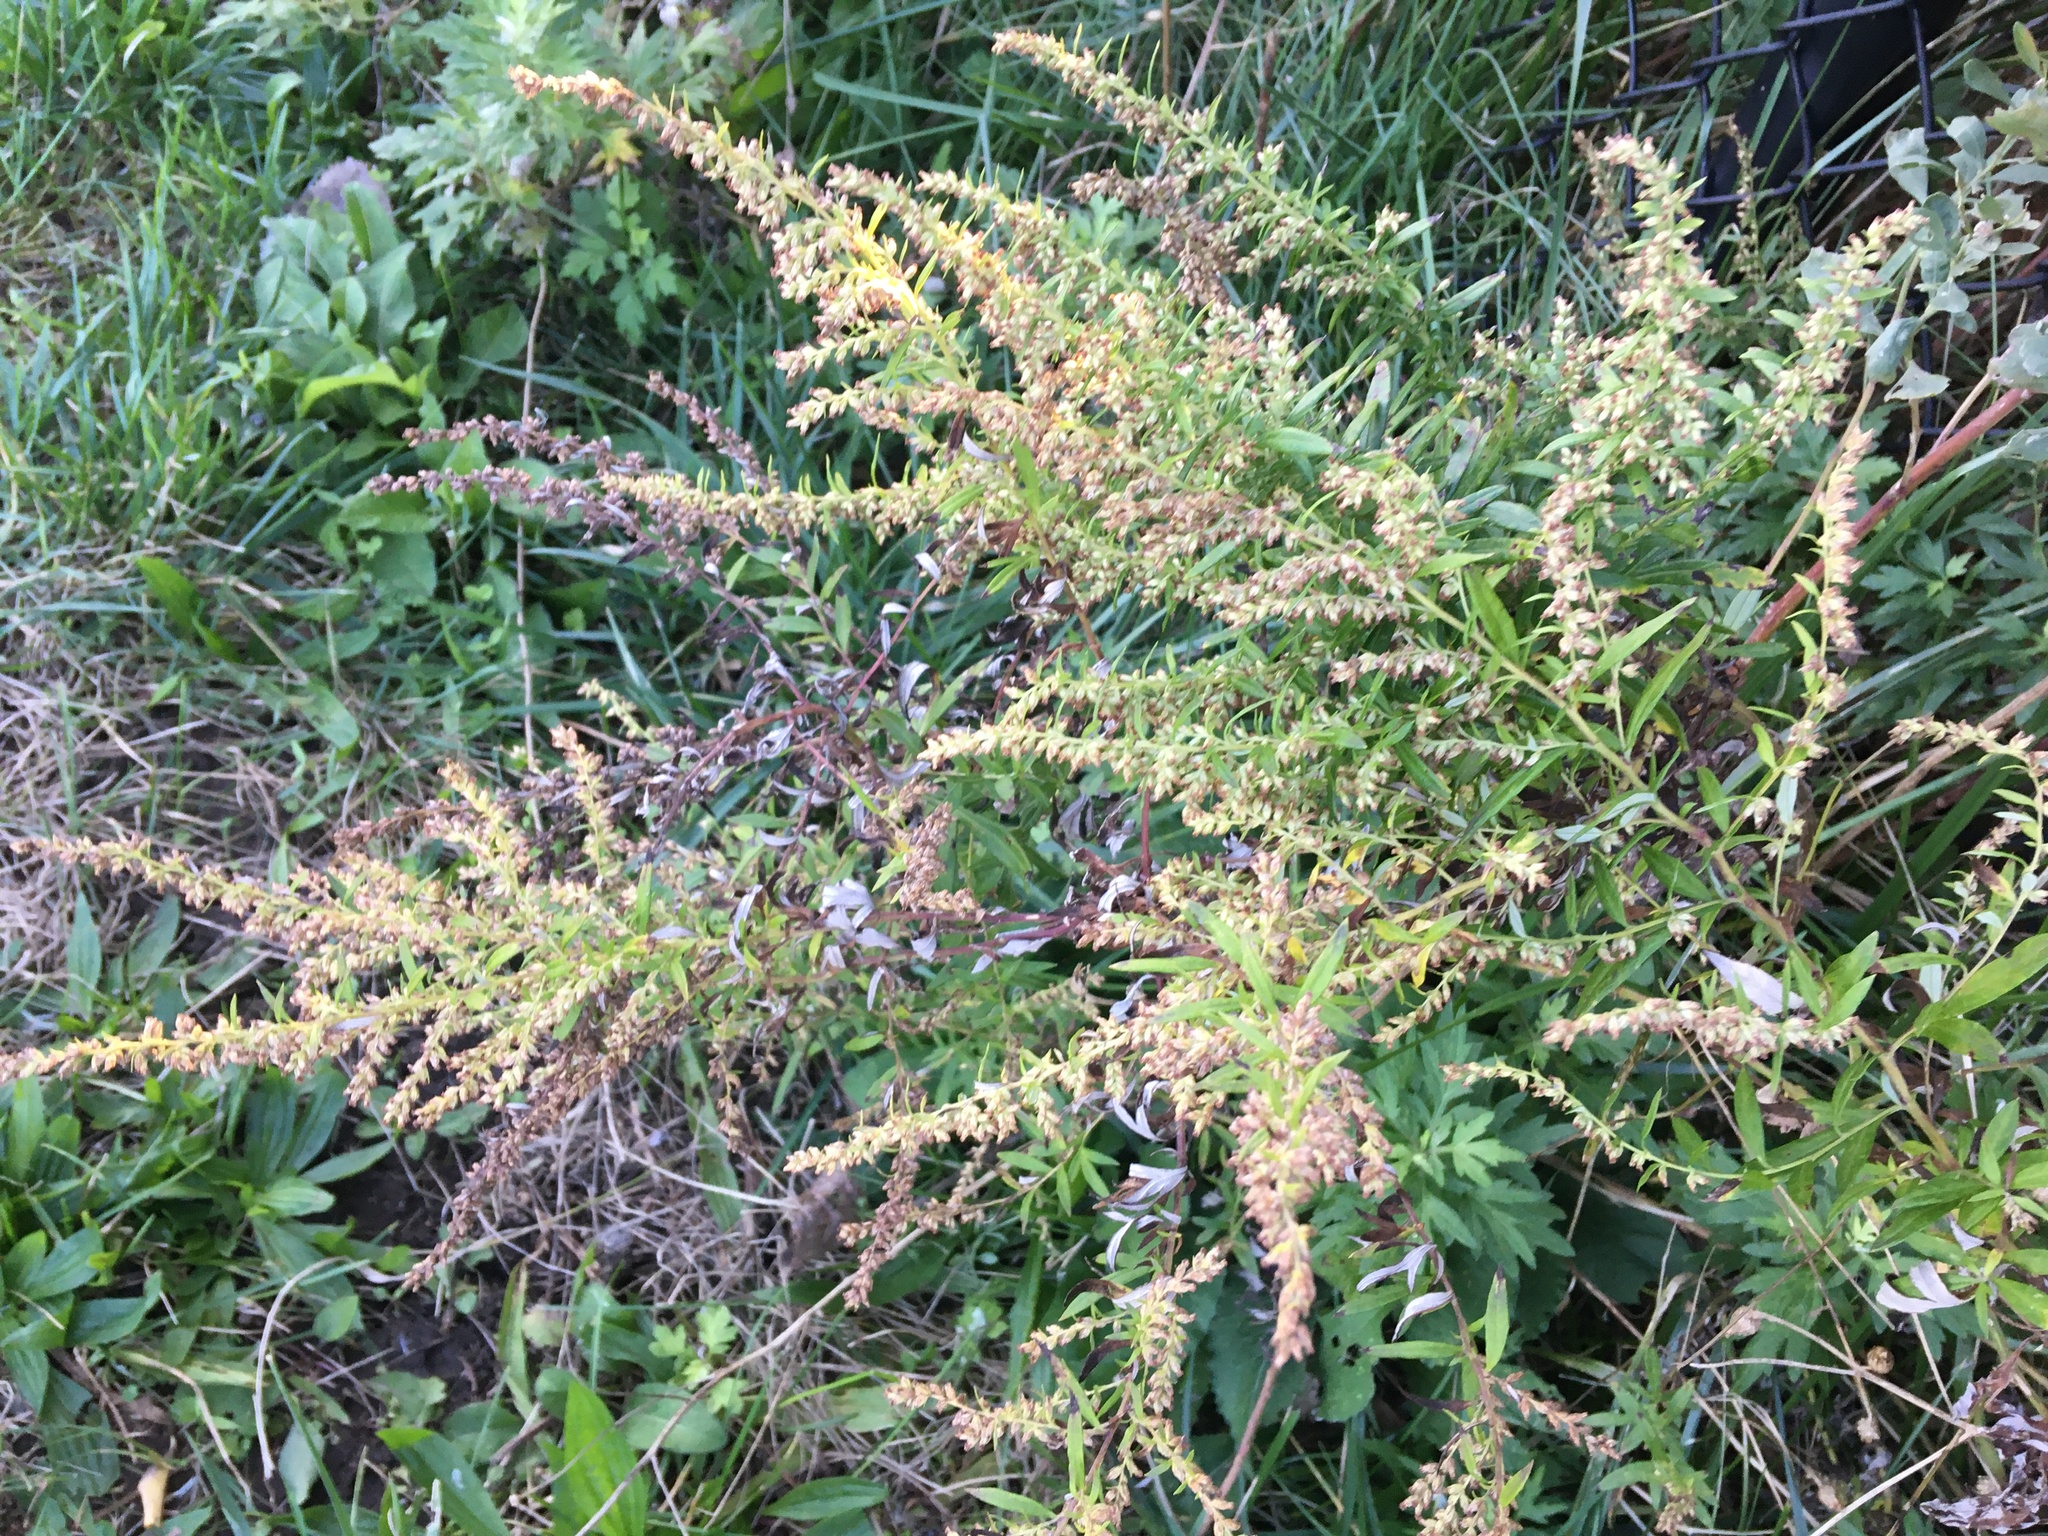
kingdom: Plantae
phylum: Tracheophyta
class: Magnoliopsida
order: Asterales
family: Asteraceae
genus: Artemisia
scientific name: Artemisia vulgaris
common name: Mugwort
